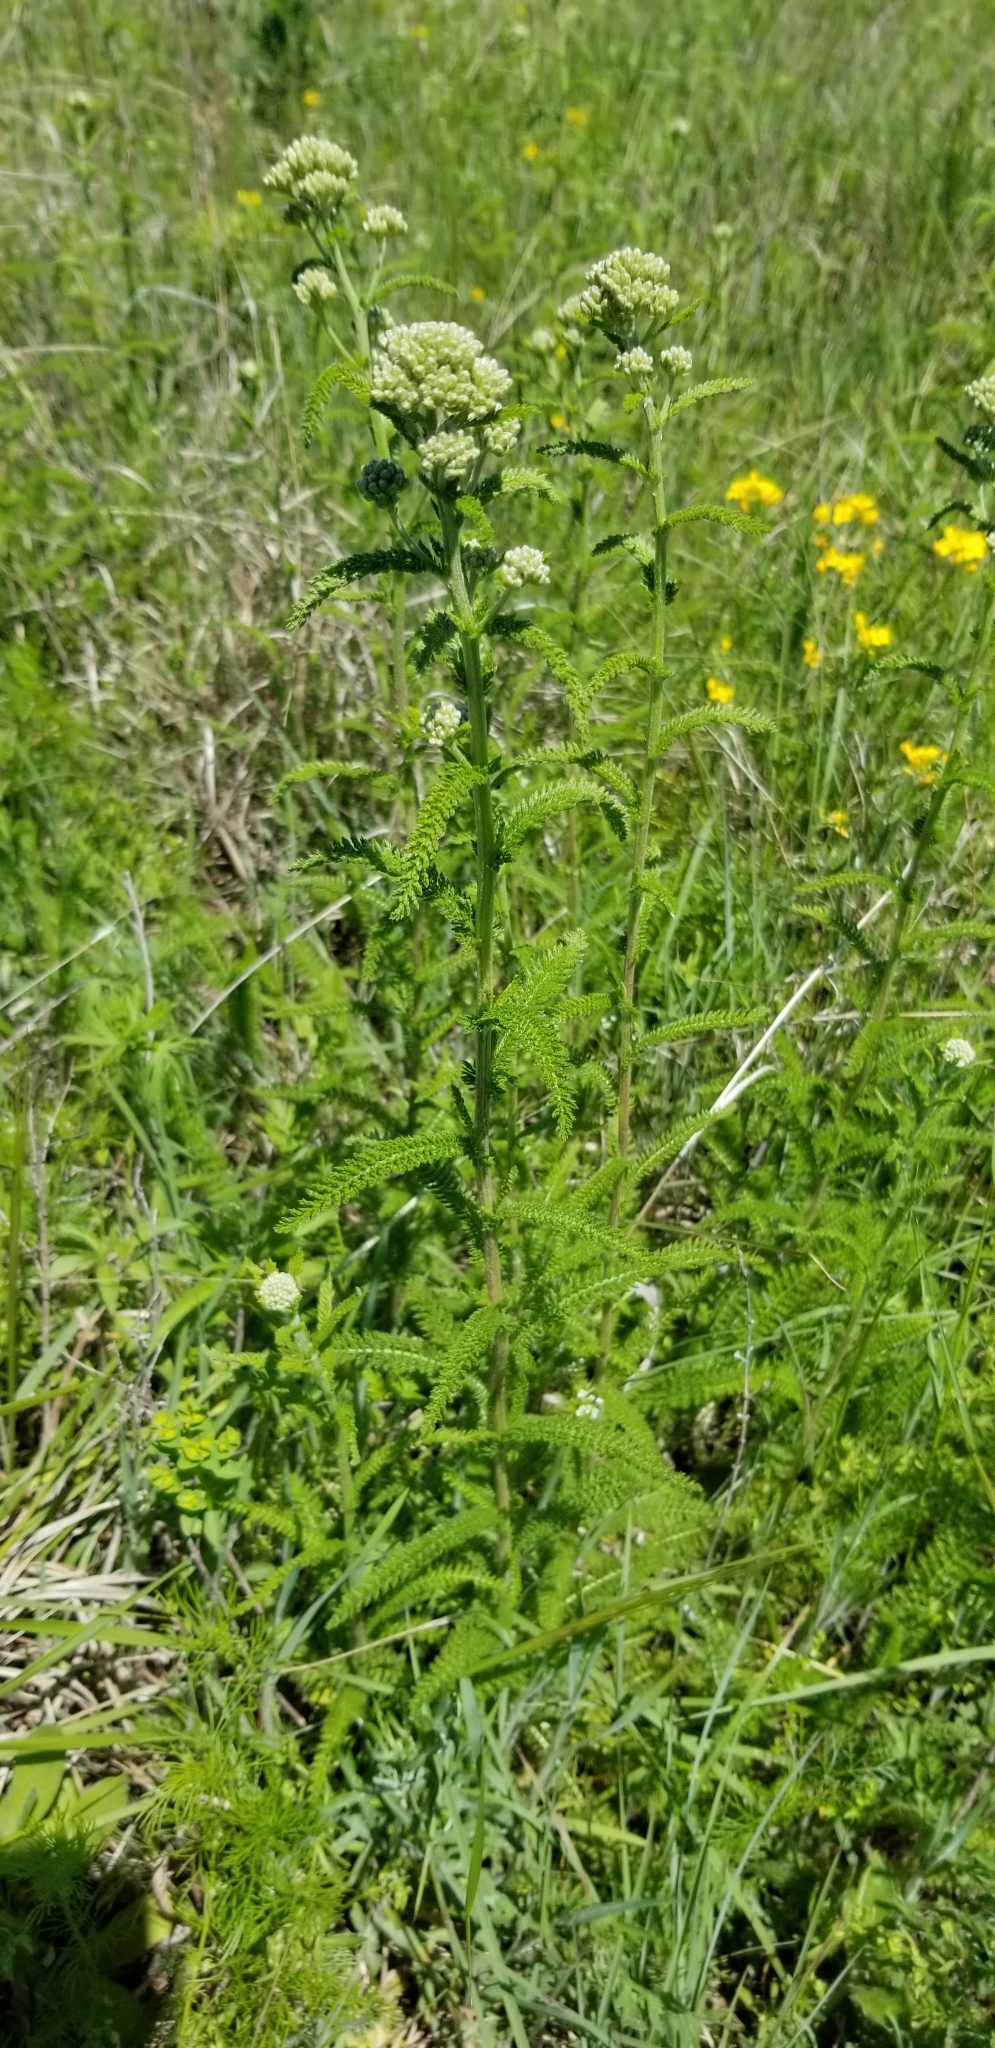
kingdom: Plantae
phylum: Tracheophyta
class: Magnoliopsida
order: Asterales
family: Asteraceae
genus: Achillea
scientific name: Achillea millefolium
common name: Yarrow
